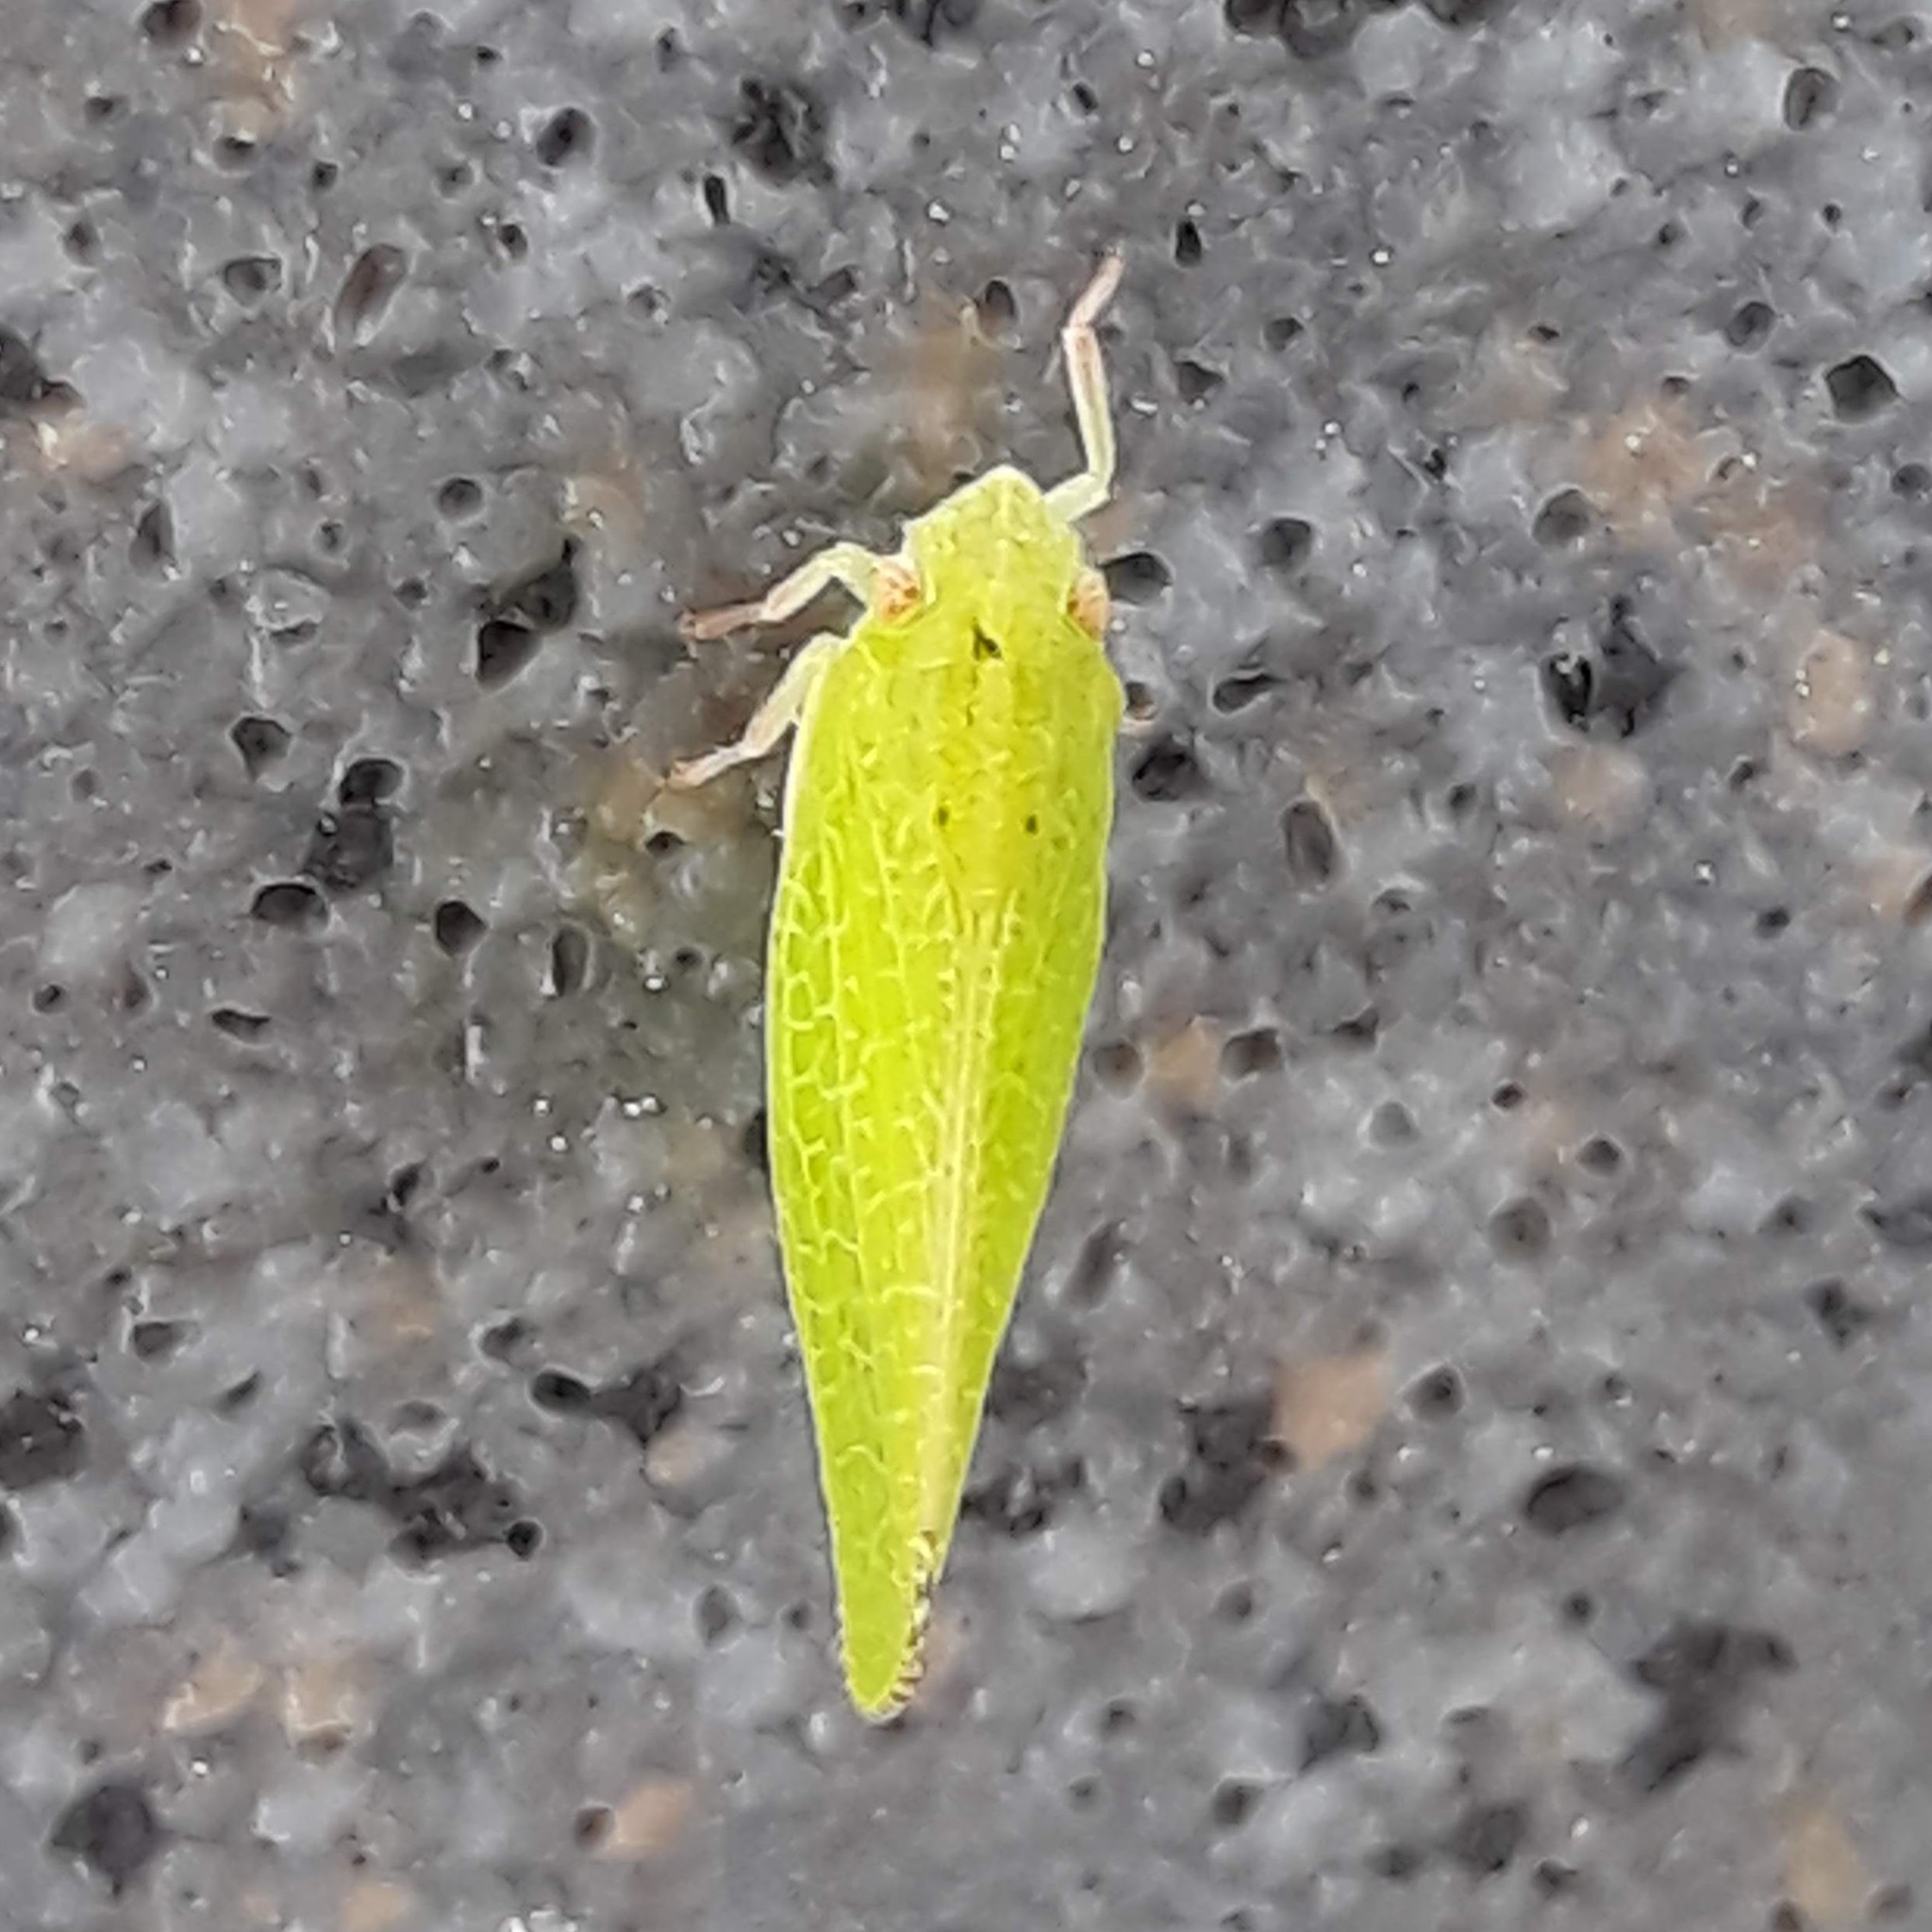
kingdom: Animalia
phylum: Arthropoda
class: Insecta
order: Hemiptera
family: Acanaloniidae
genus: Acanalonia
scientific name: Acanalonia conica
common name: Green cone-headed planthopper
